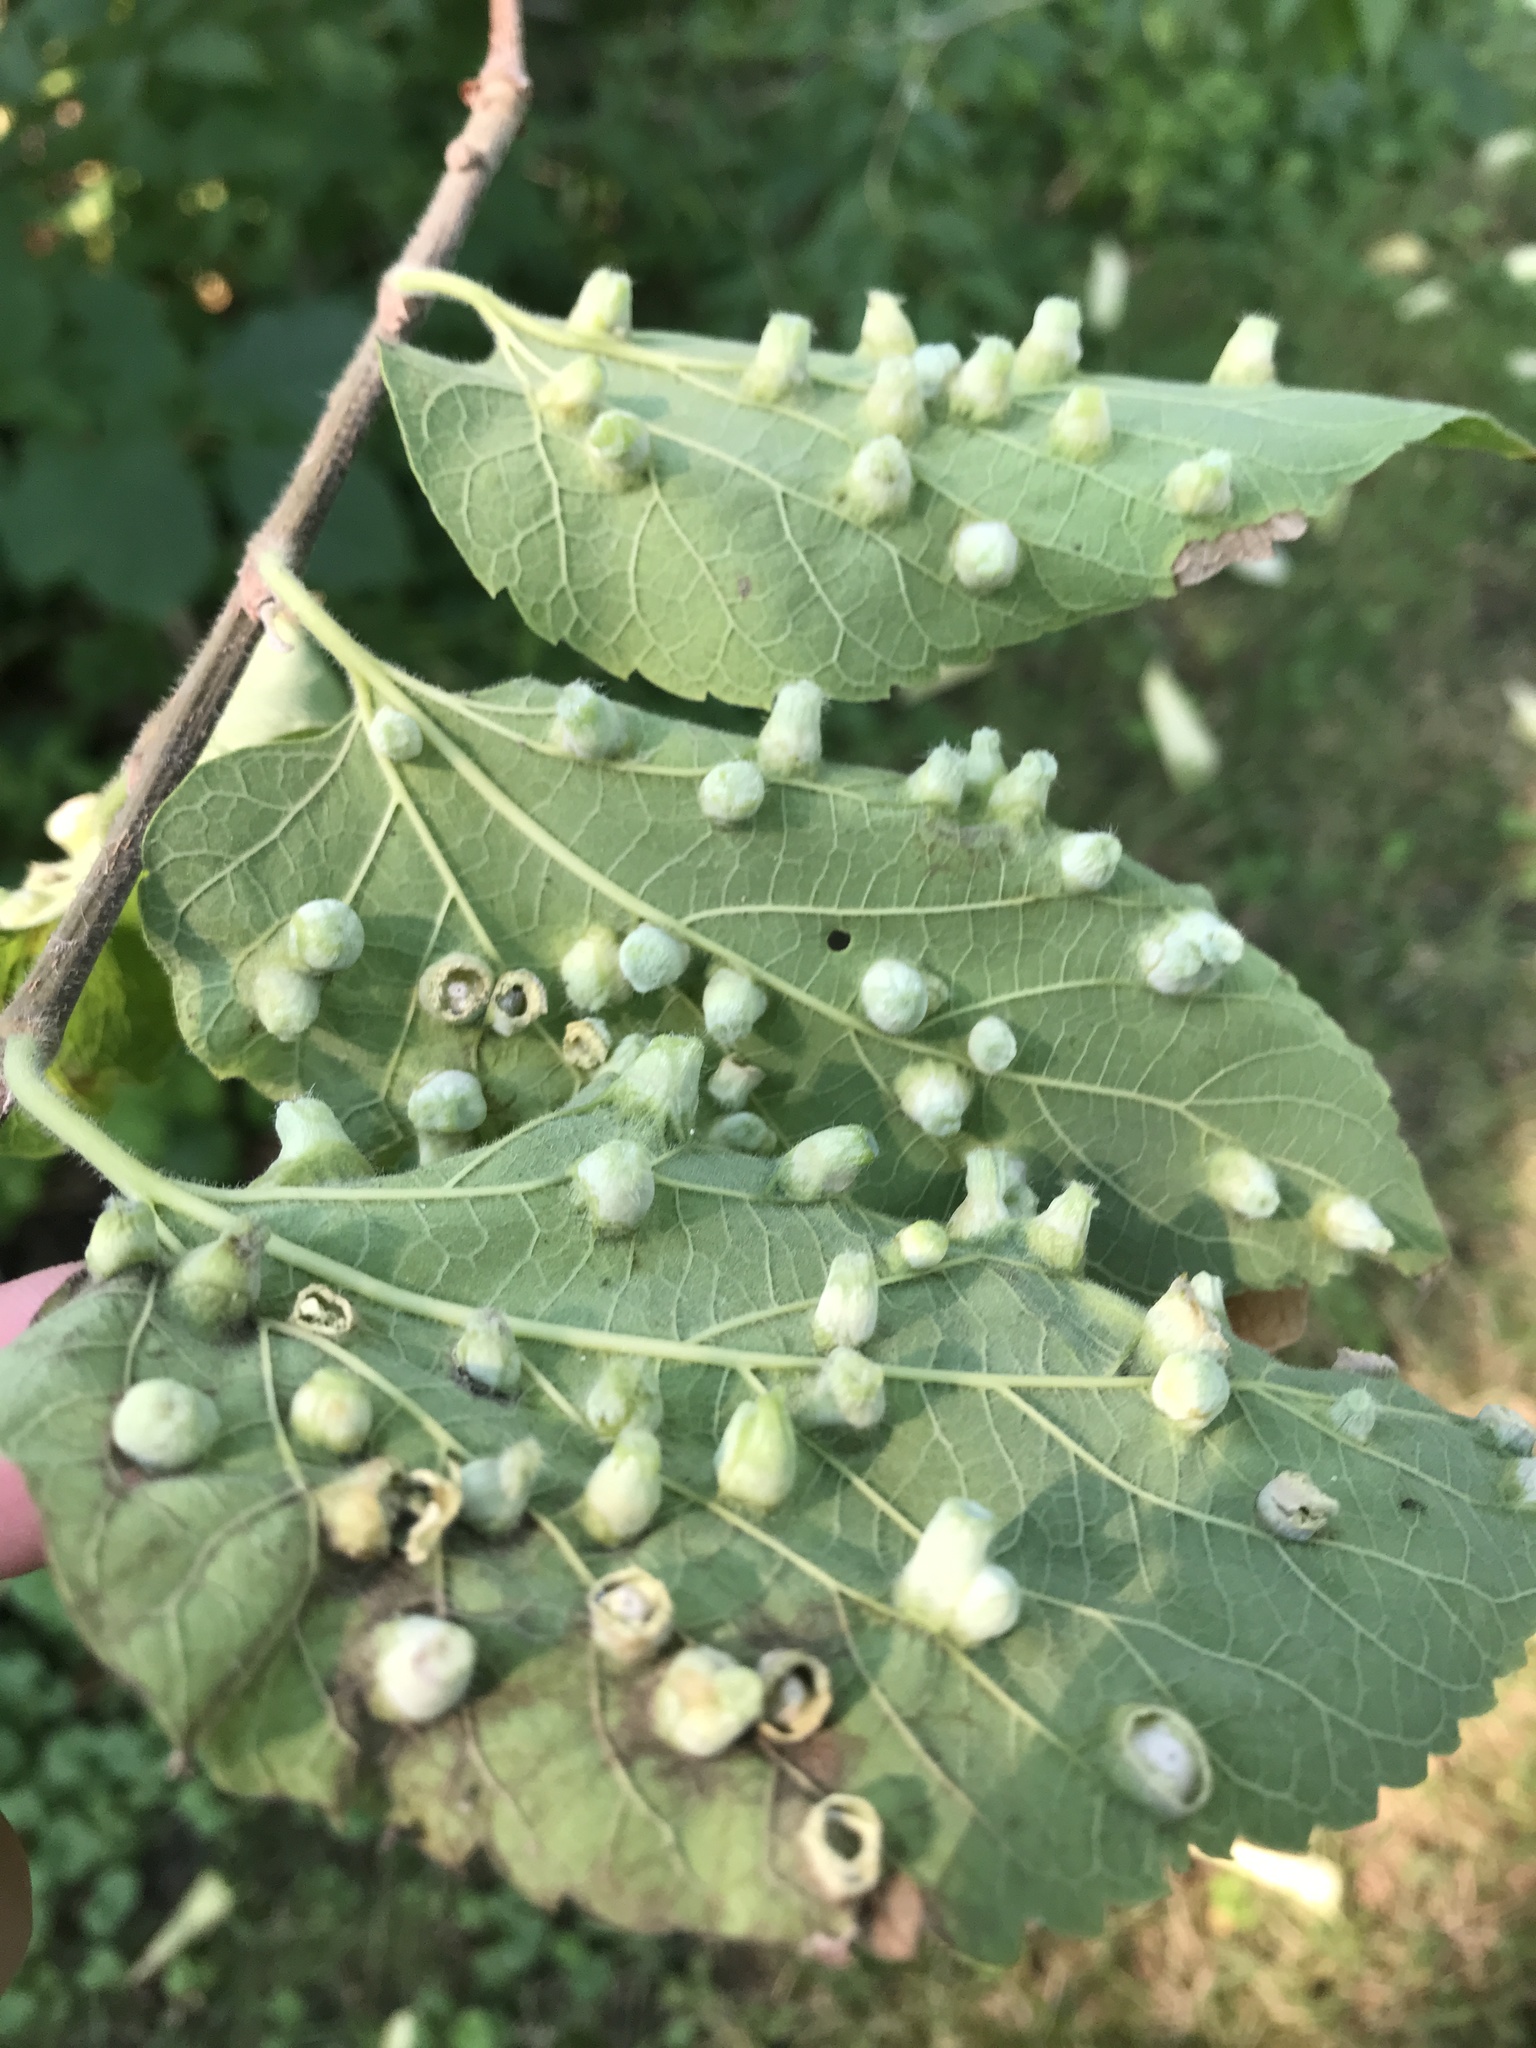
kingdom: Animalia
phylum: Arthropoda
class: Insecta
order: Hemiptera
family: Aphalaridae
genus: Pachypsylla
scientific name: Pachypsylla celtidismamma
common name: Hackberry nipplegall psyllid
